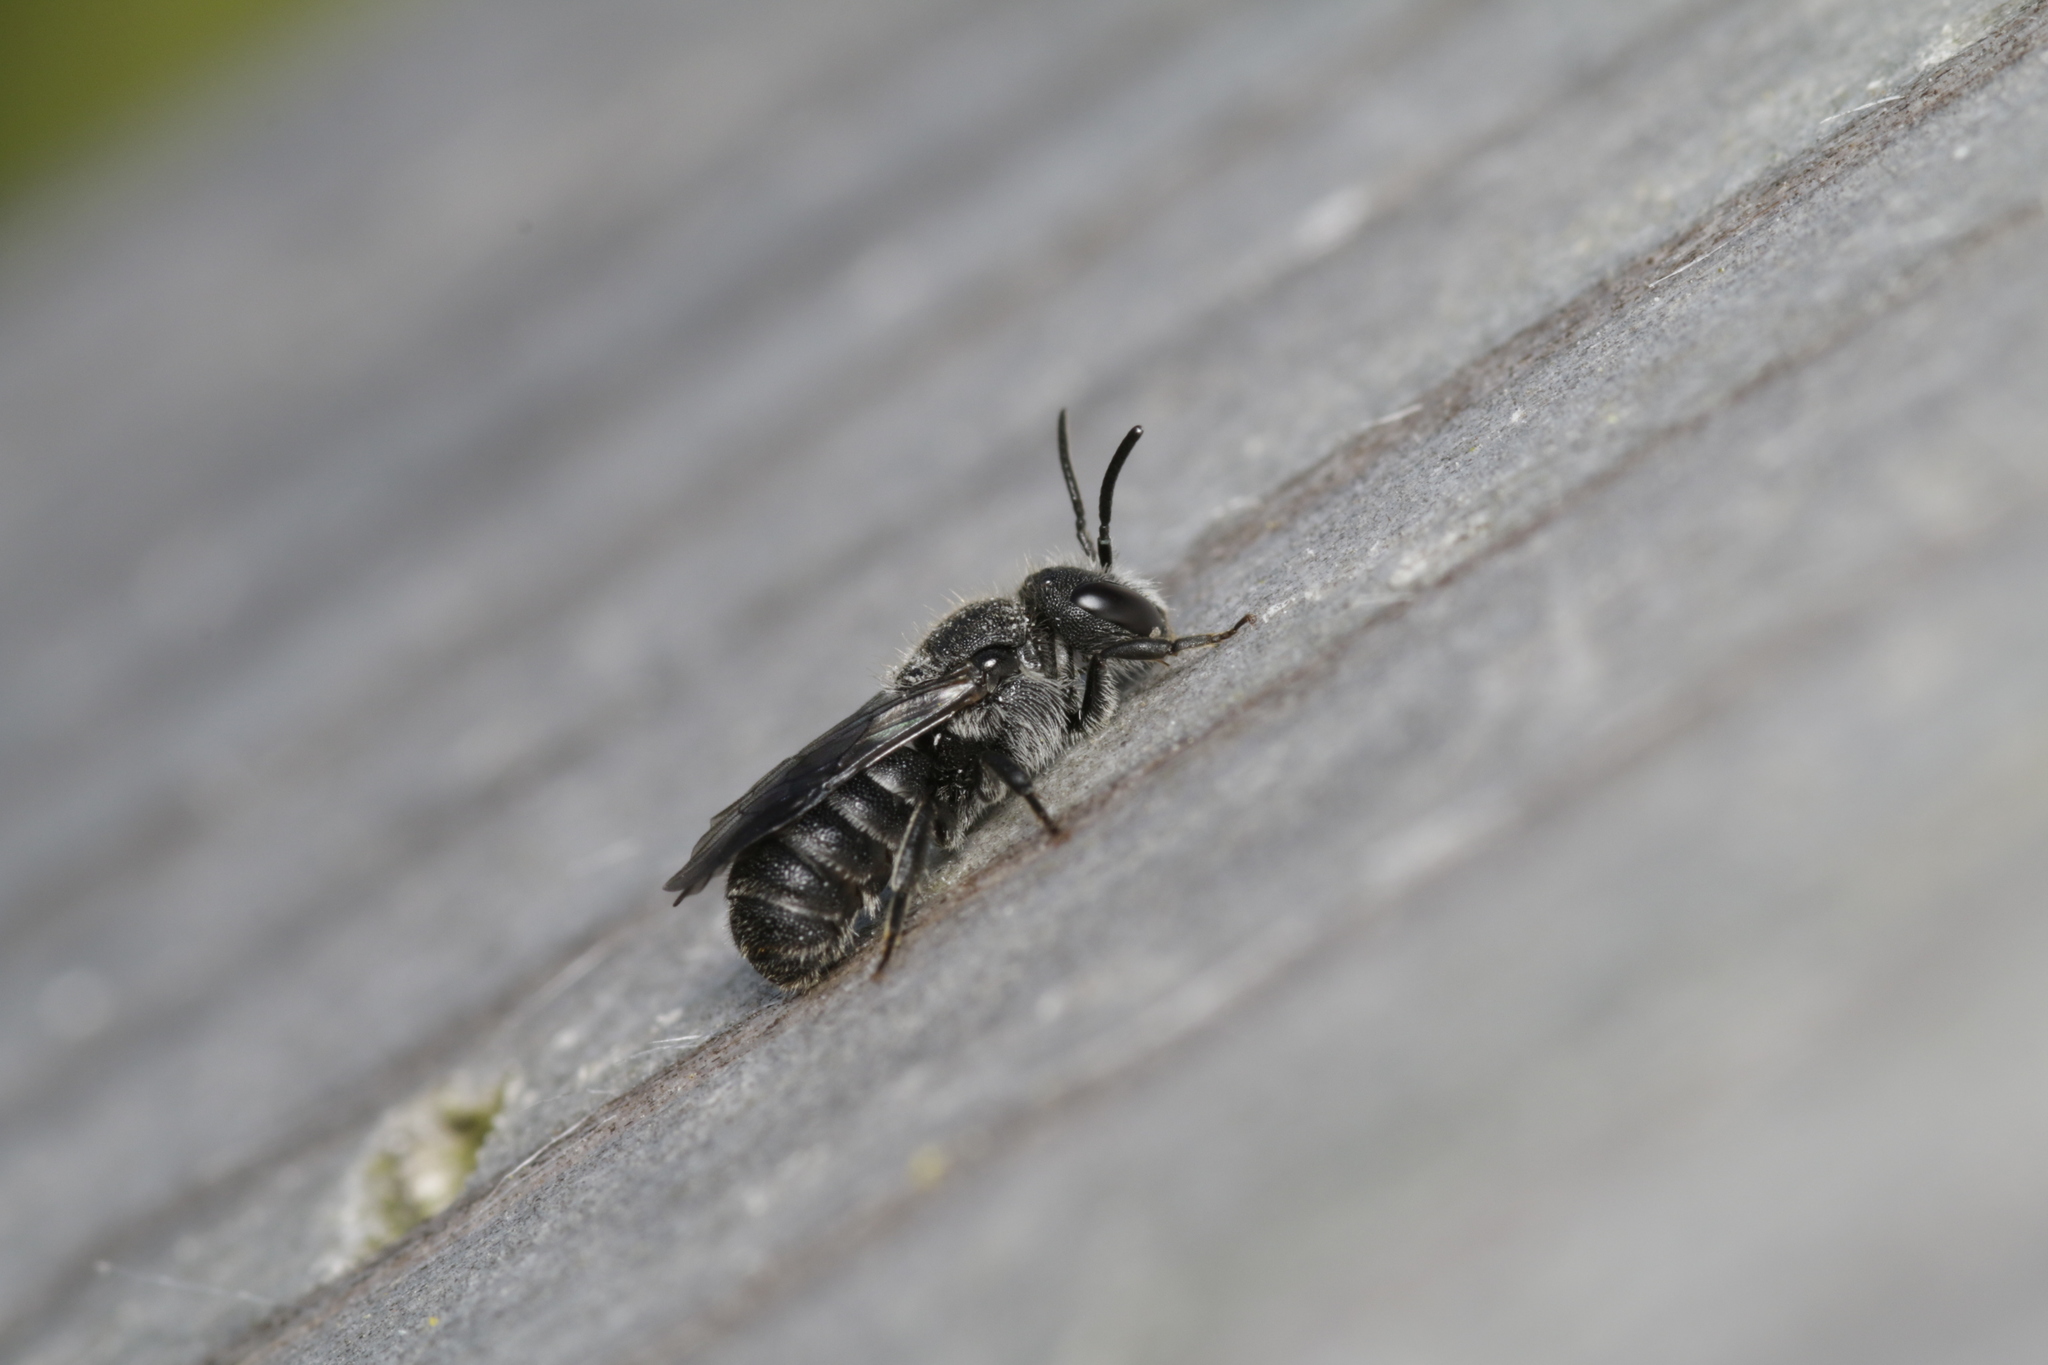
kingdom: Animalia
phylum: Arthropoda
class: Insecta
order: Hymenoptera
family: Megachilidae
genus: Stelis
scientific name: Stelis breviuscula
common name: Little dark bee
